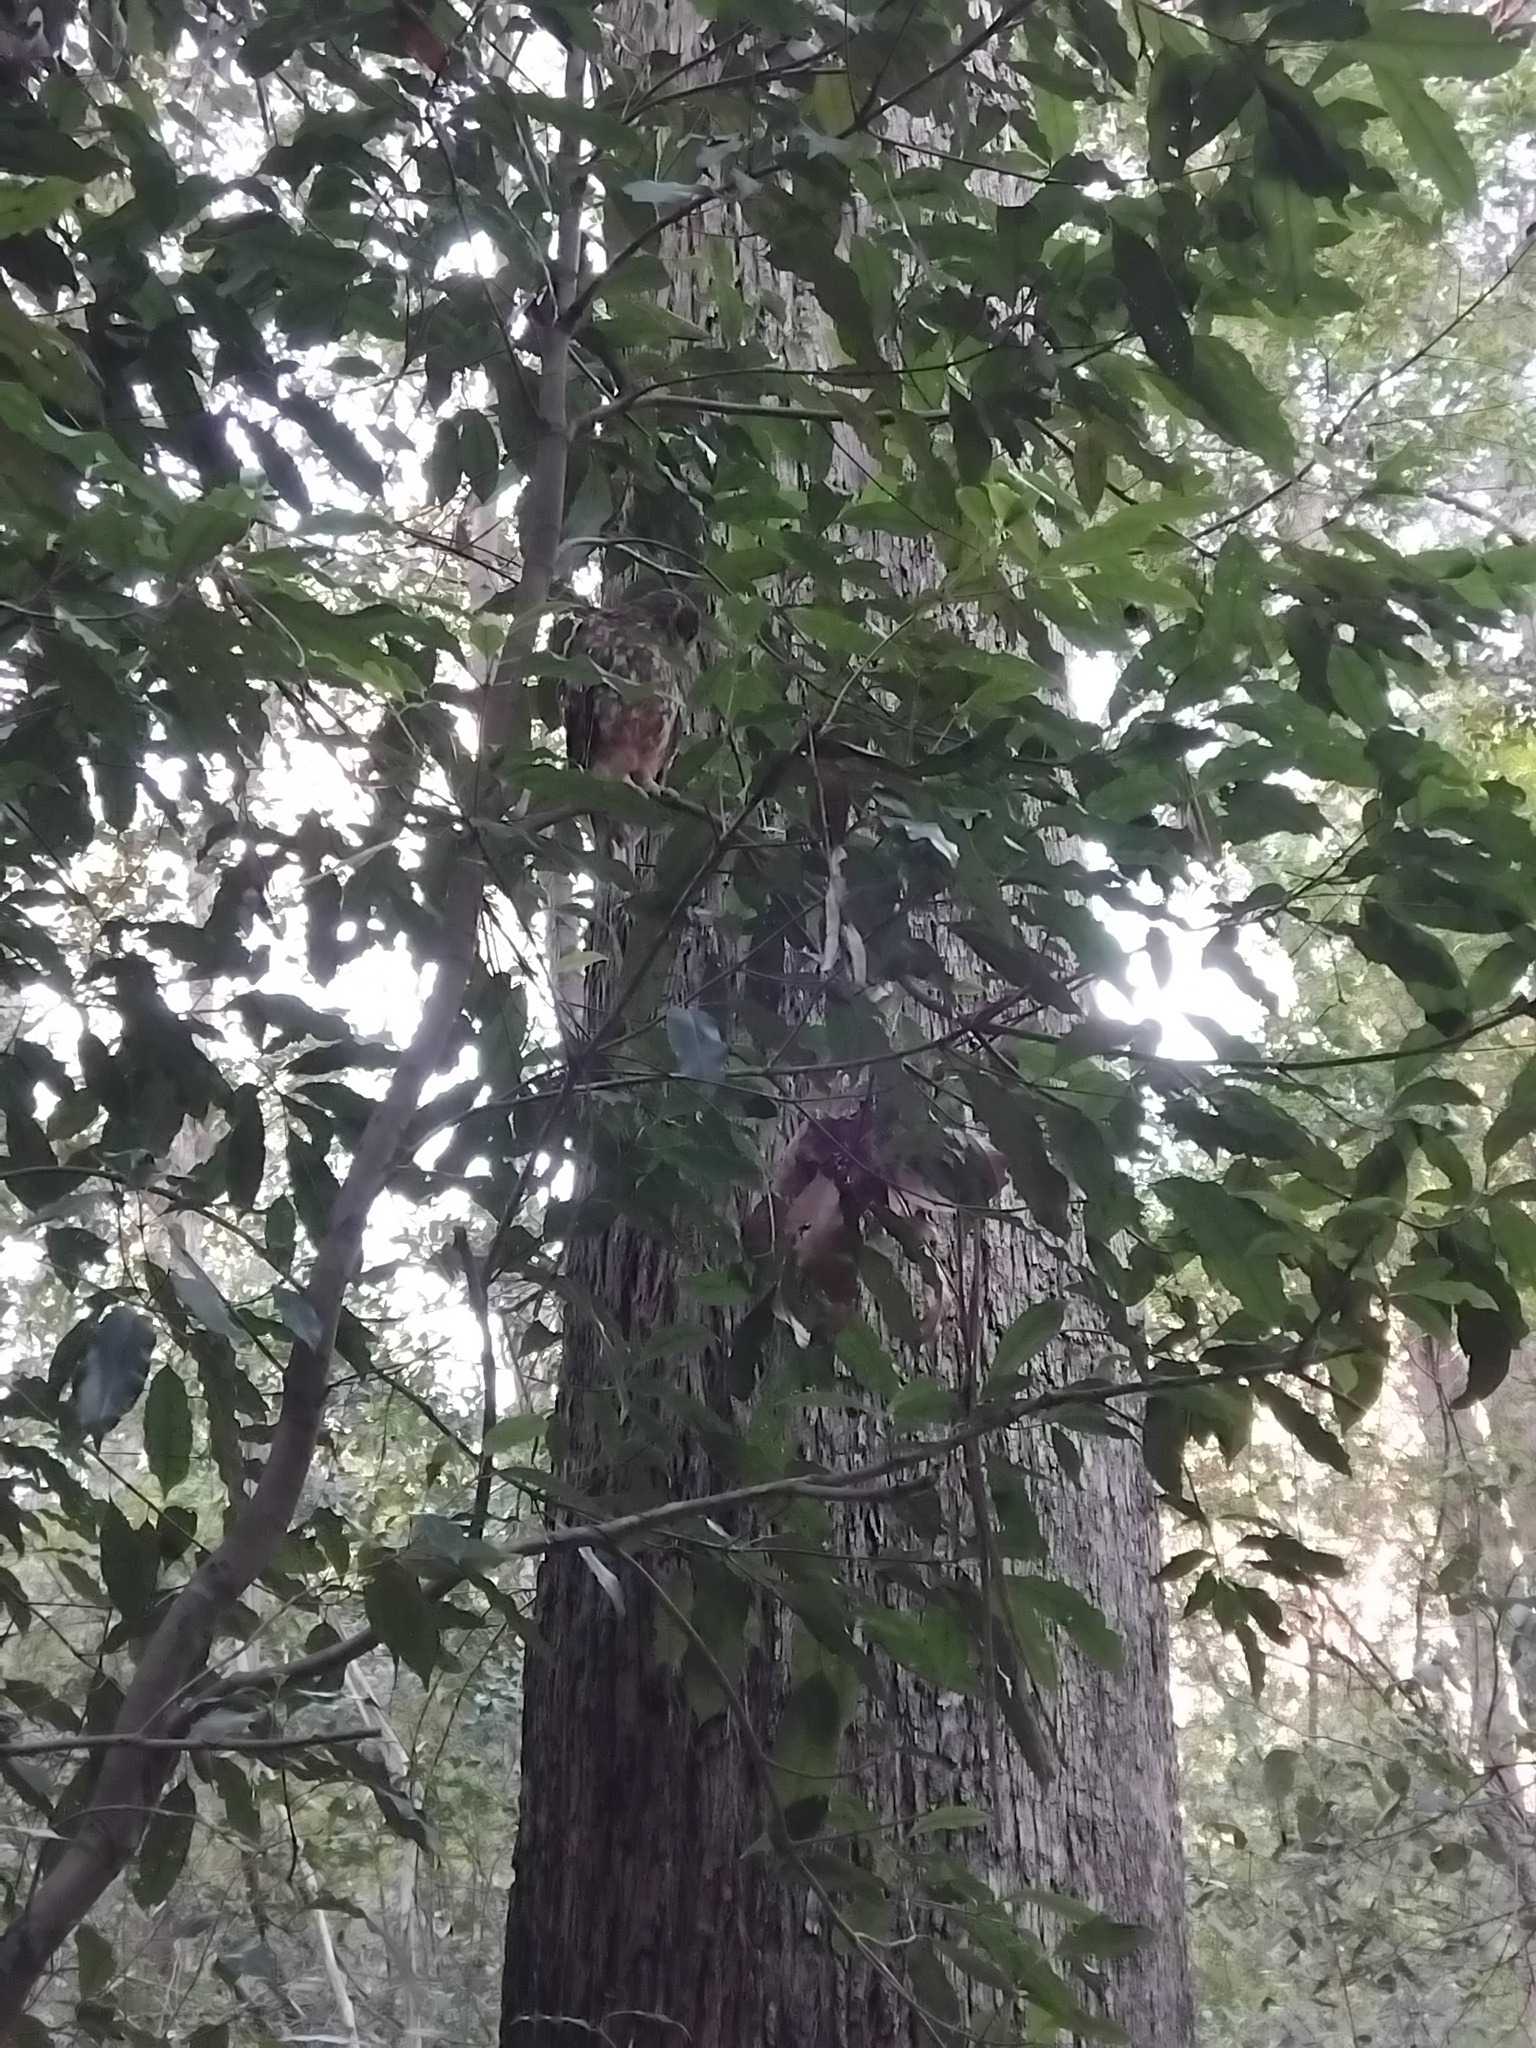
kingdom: Animalia
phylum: Chordata
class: Aves
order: Strigiformes
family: Strigidae
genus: Ninox
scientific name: Ninox boobook
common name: Southern boobook
